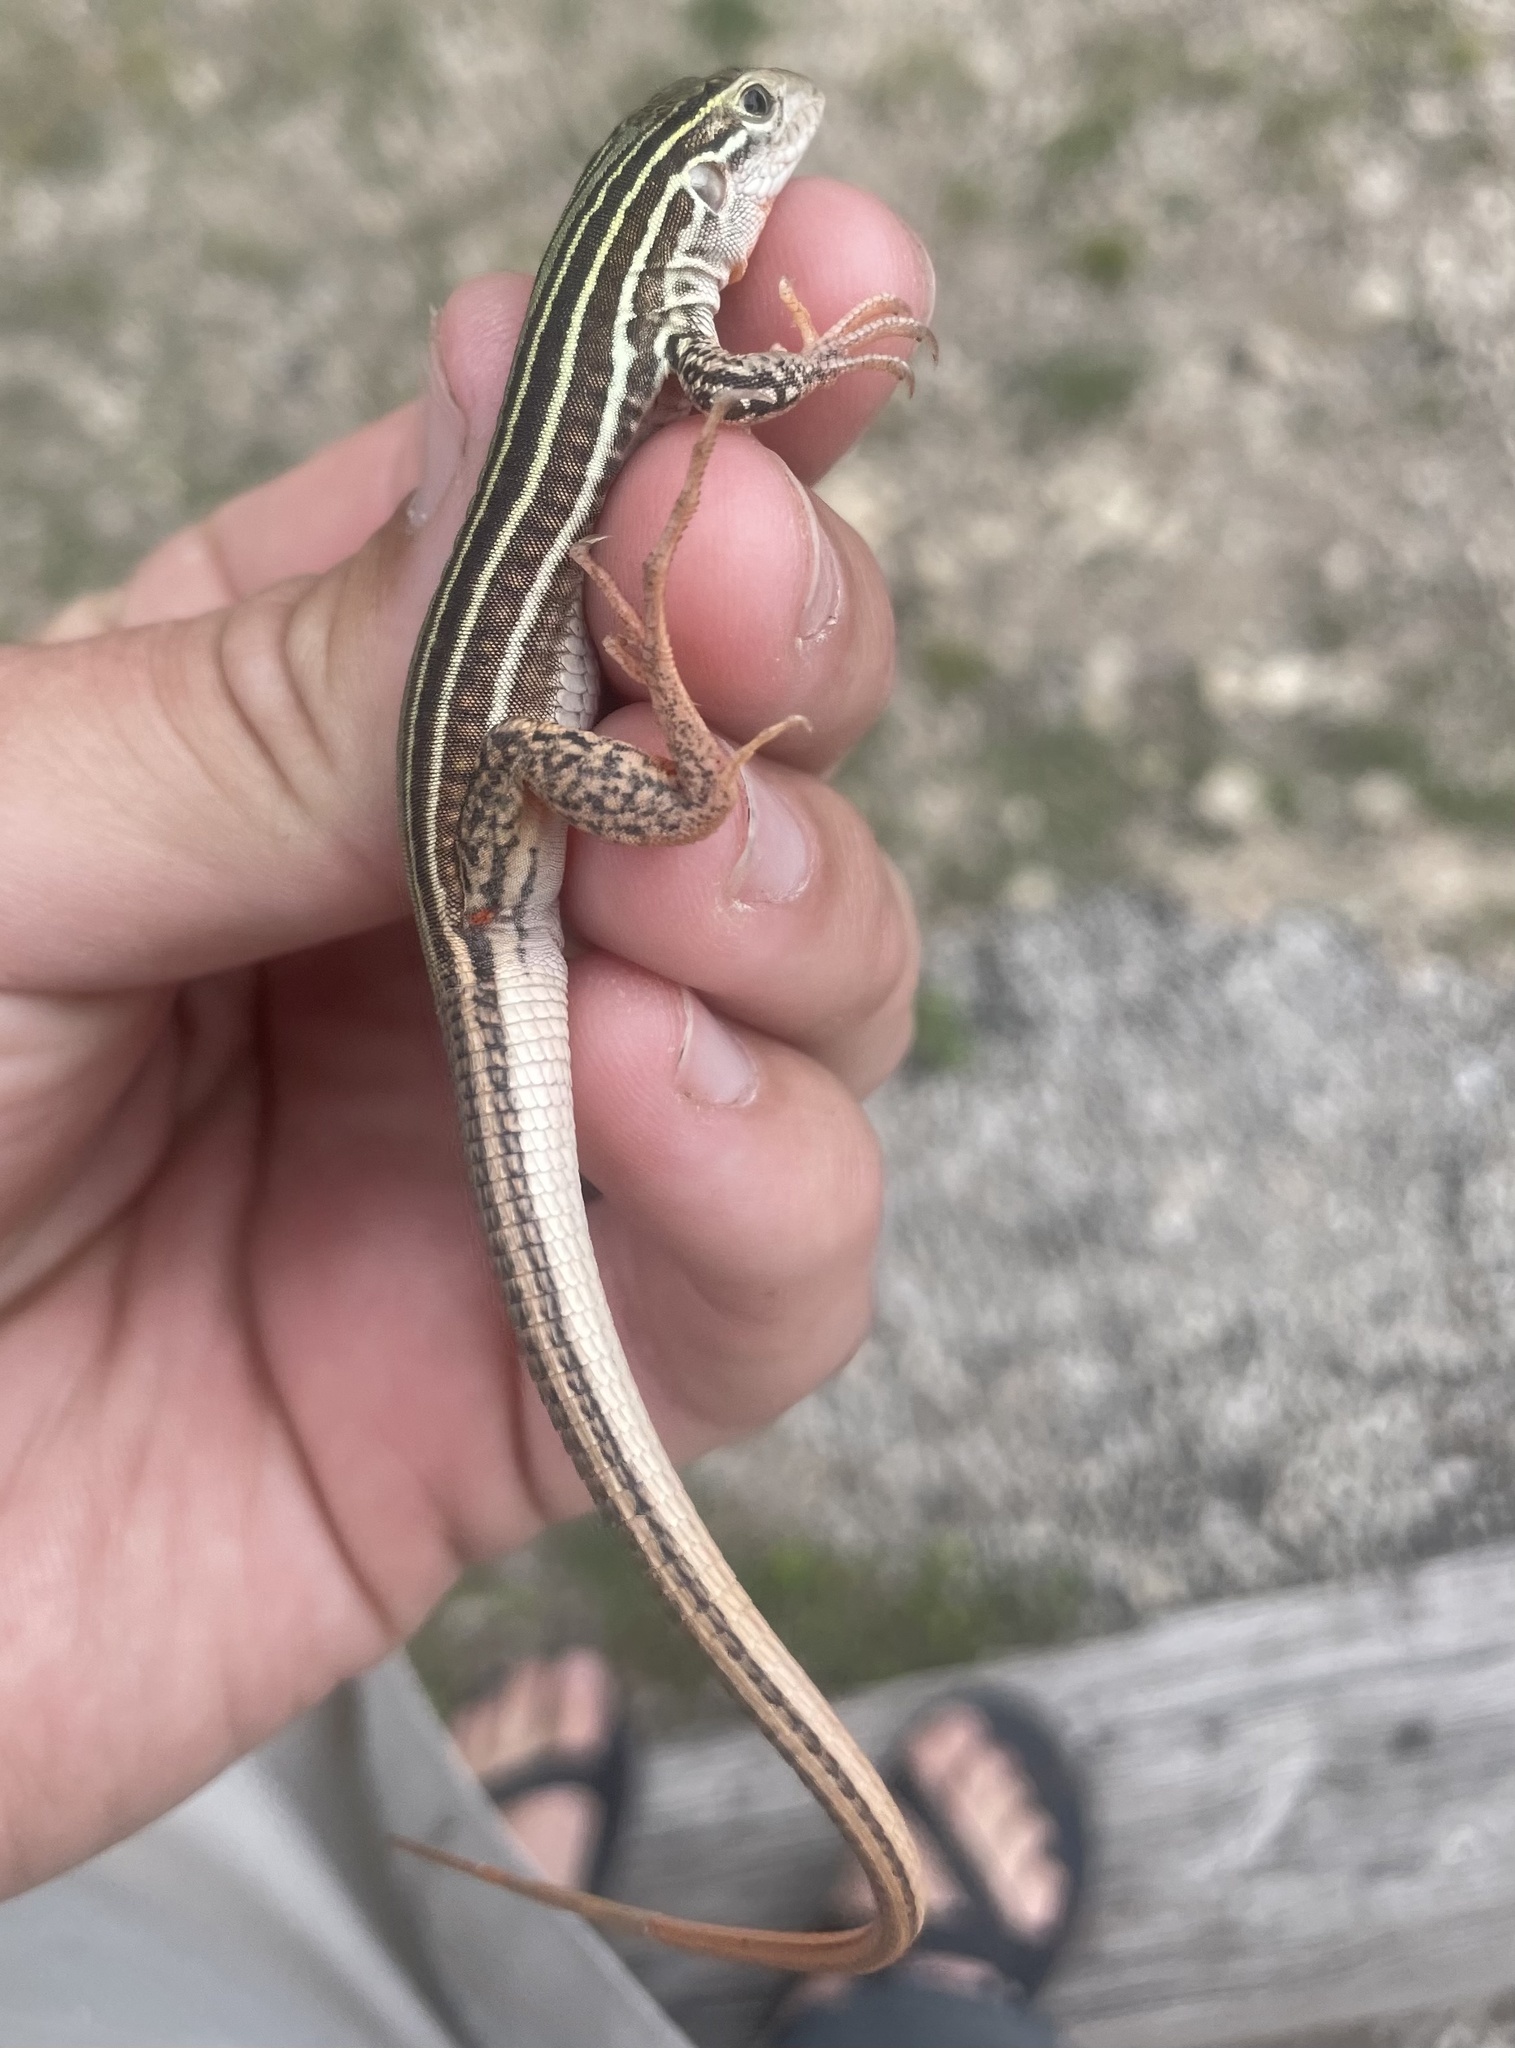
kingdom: Animalia
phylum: Chordata
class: Squamata
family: Teiidae
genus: Aspidoscelis
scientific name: Aspidoscelis gularis
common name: Eastern spotted whiptail
